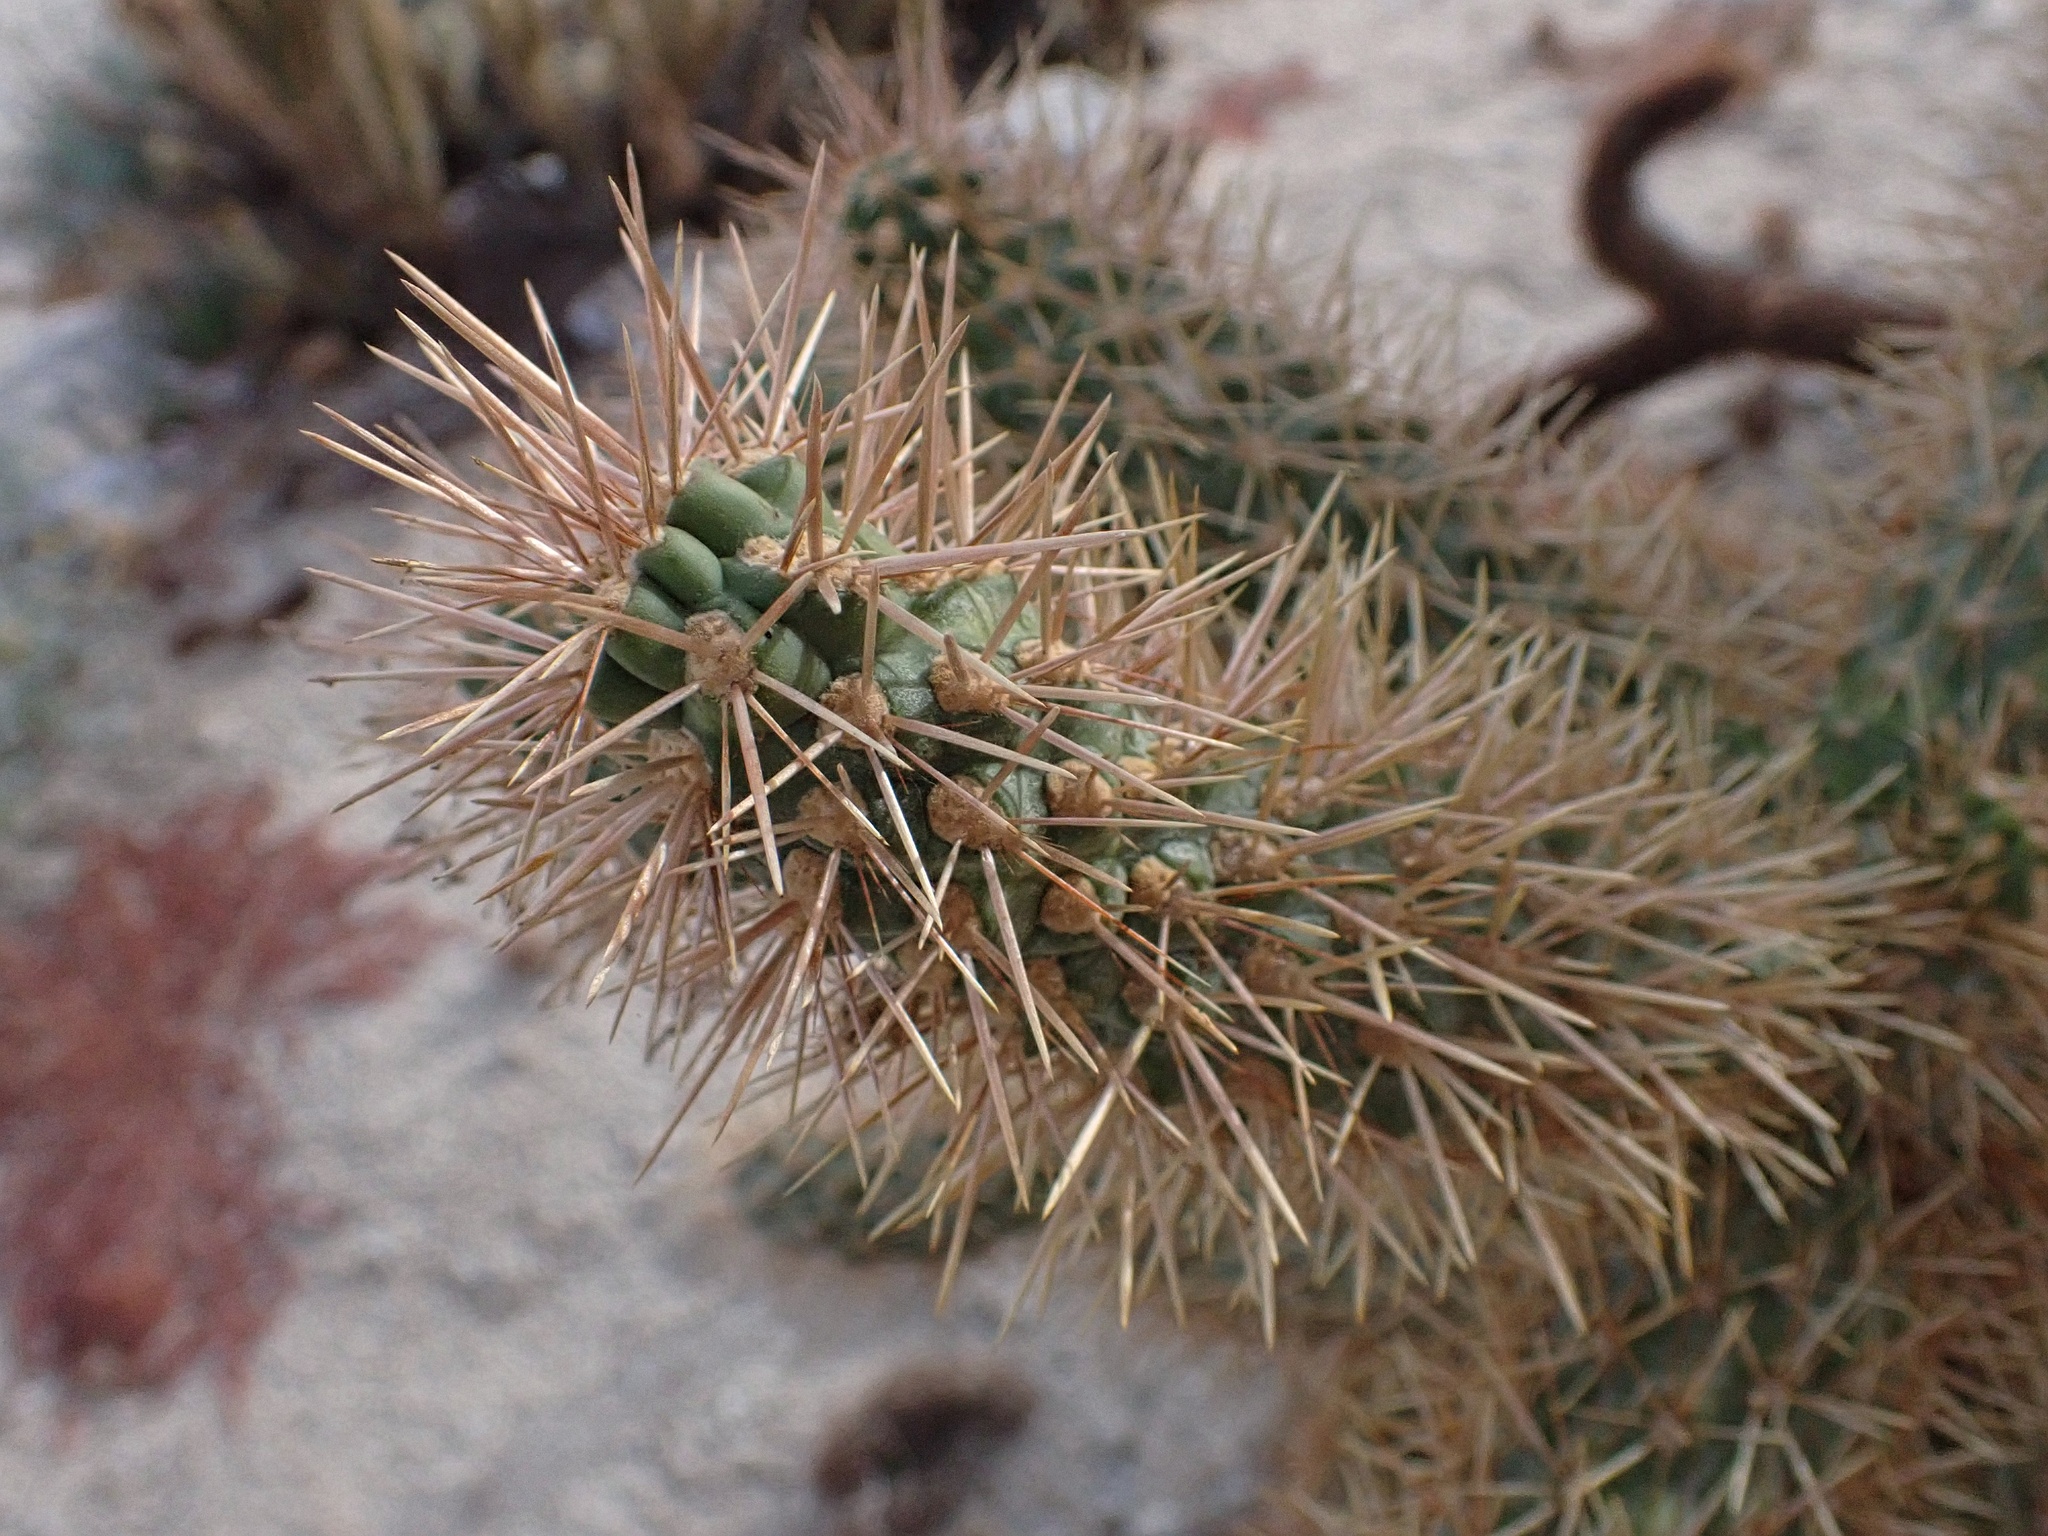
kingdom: Plantae
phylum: Tracheophyta
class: Magnoliopsida
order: Caryophyllales
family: Cactaceae
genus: Cylindropuntia
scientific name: Cylindropuntia fosbergii
